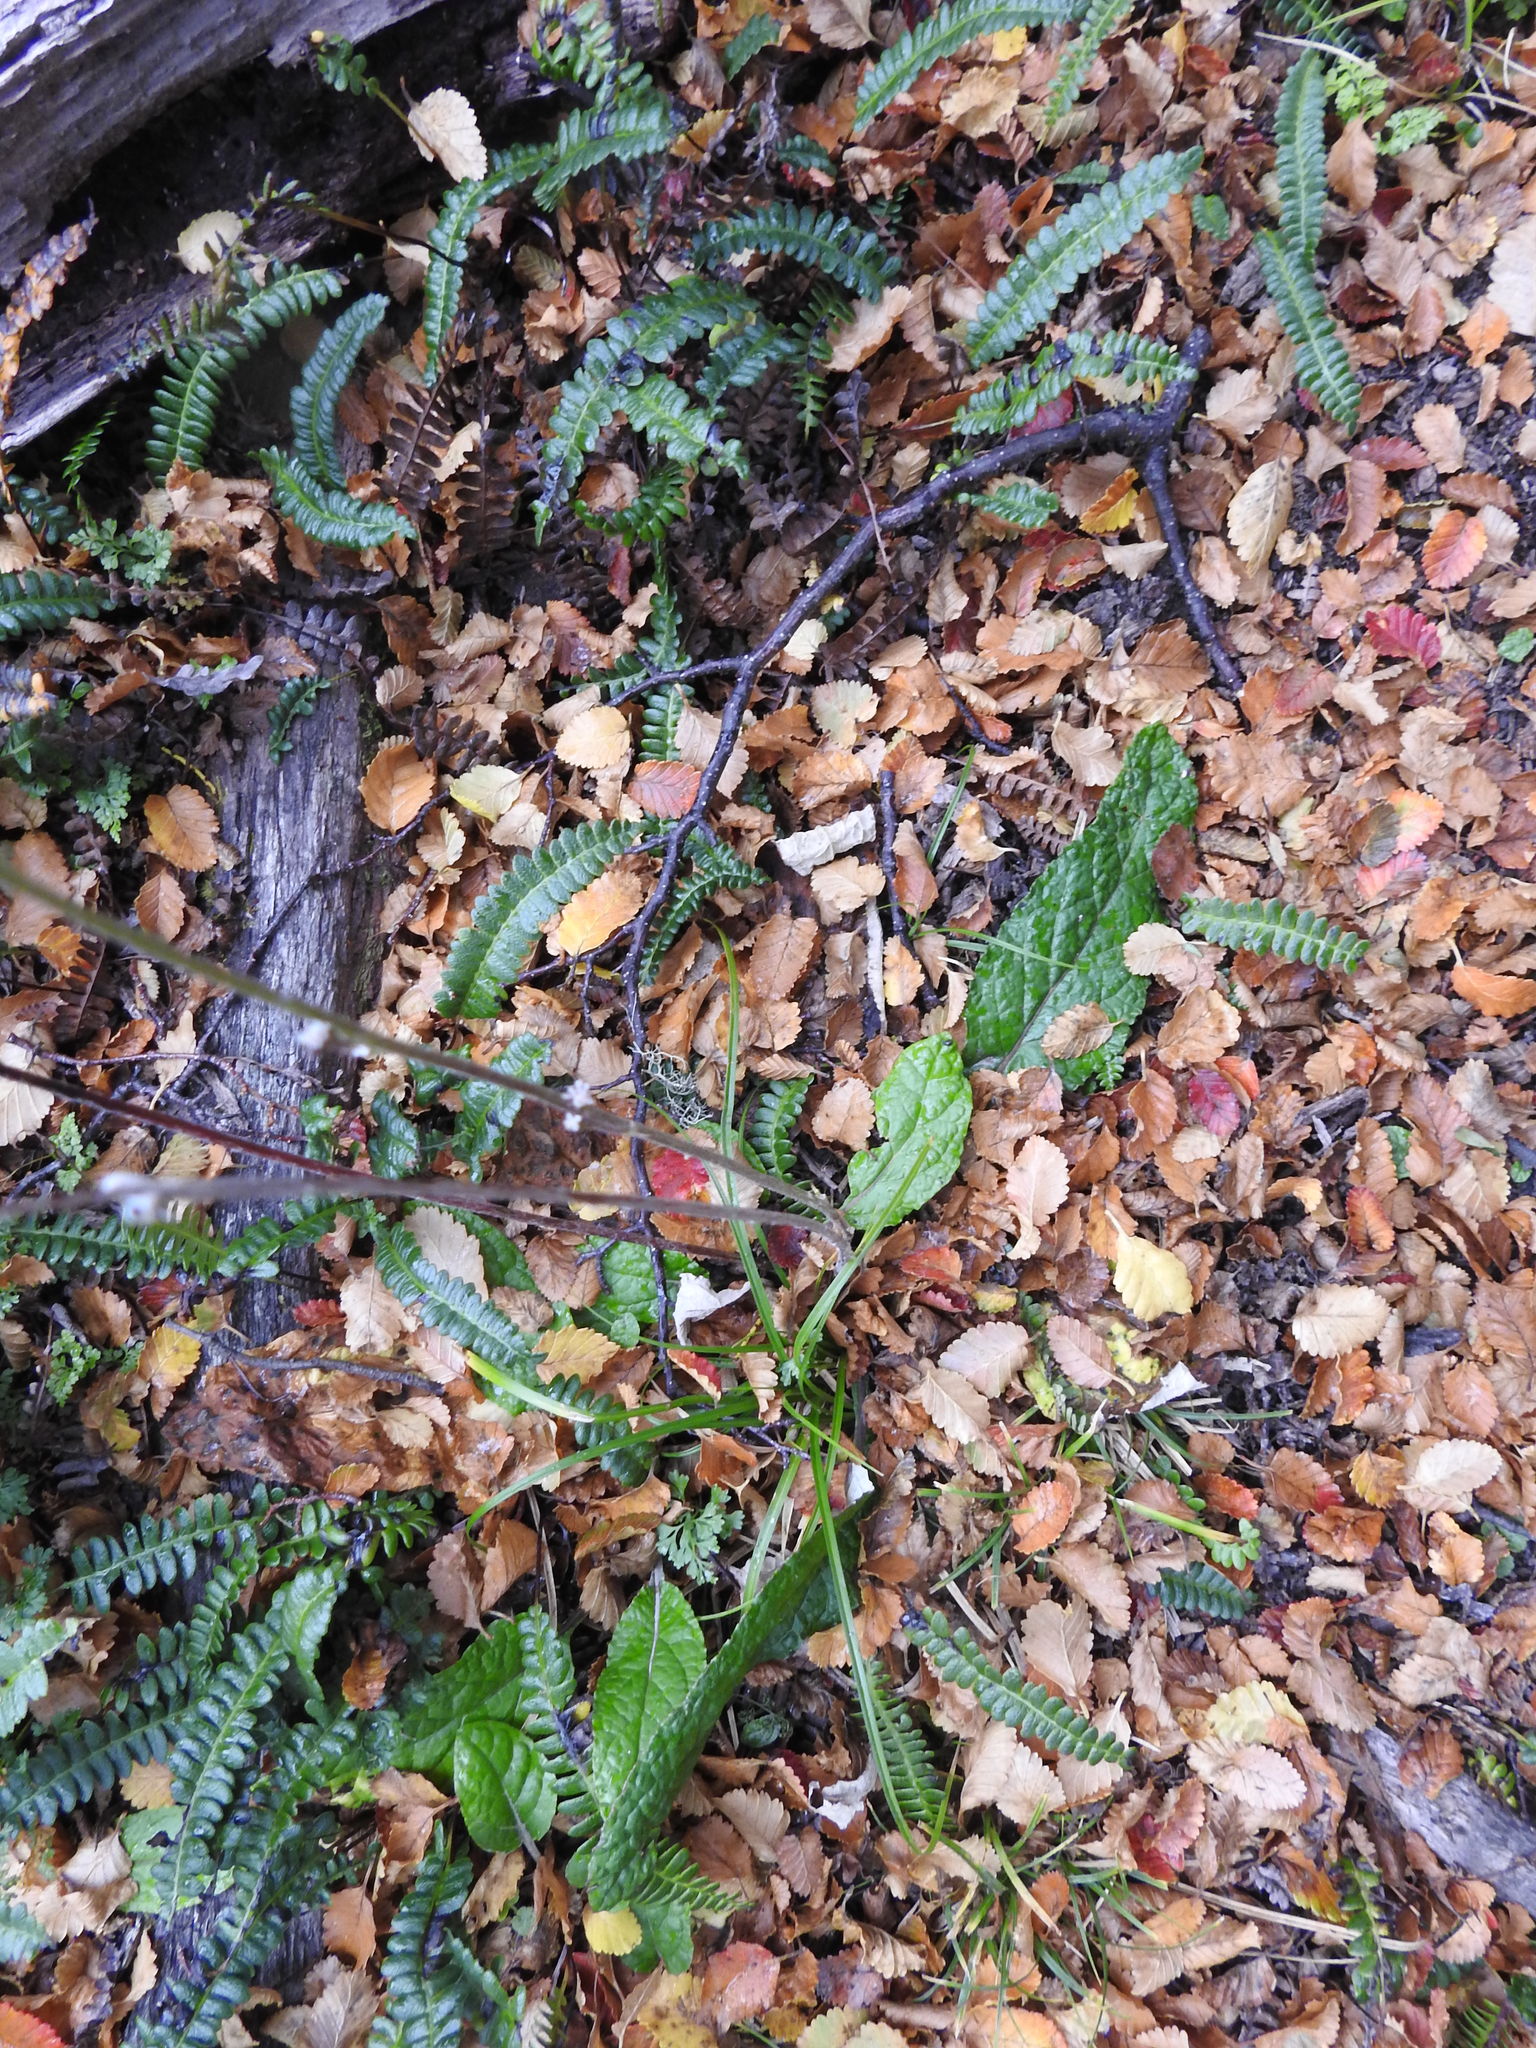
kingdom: Plantae
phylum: Tracheophyta
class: Magnoliopsida
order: Asterales
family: Asteraceae
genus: Adenocaulon
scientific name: Adenocaulon chilense
